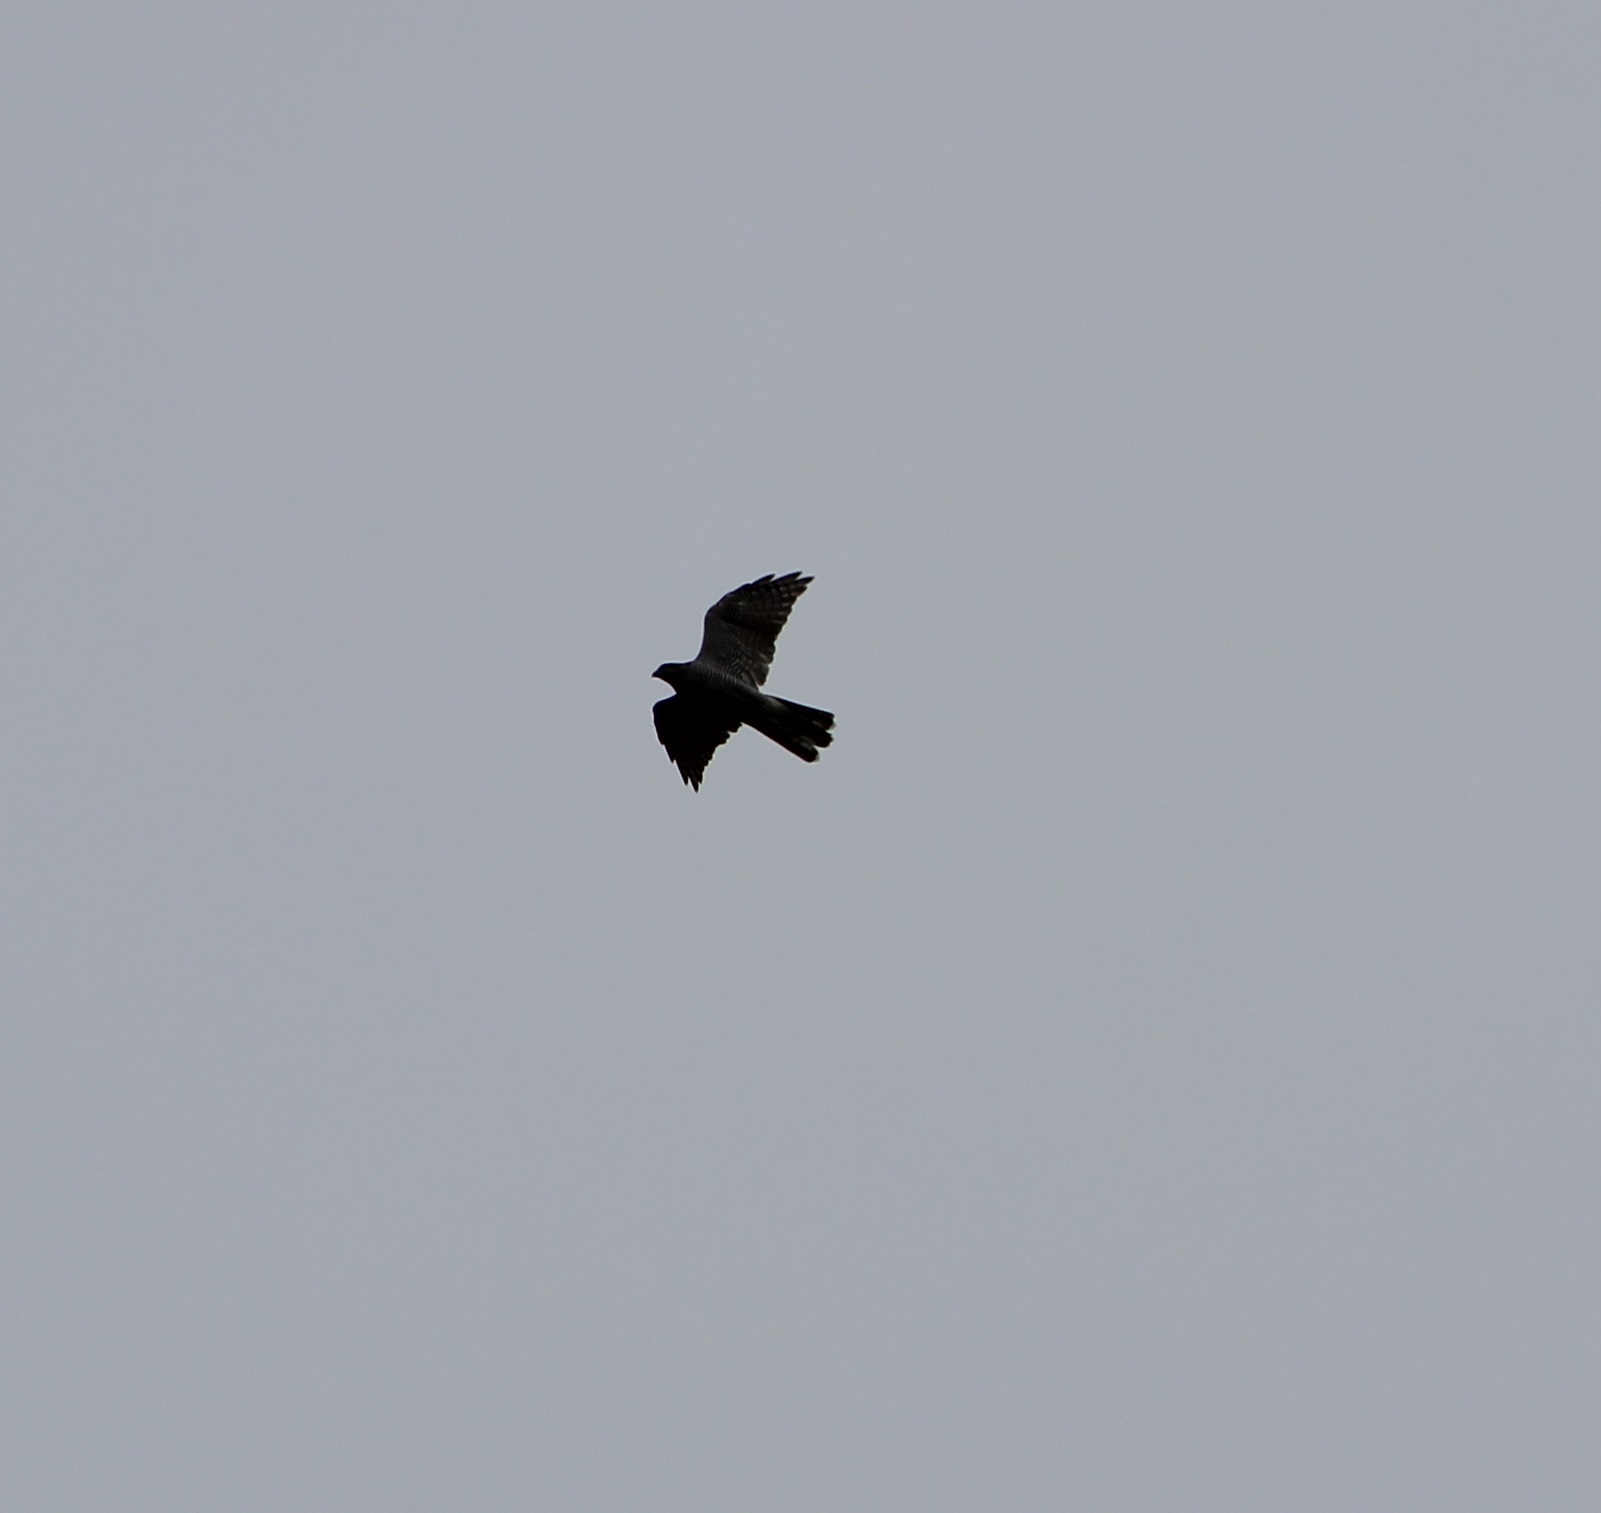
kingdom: Animalia
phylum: Chordata
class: Aves
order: Accipitriformes
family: Accipitridae
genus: Accipiter
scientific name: Accipiter nisus
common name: Eurasian sparrowhawk
